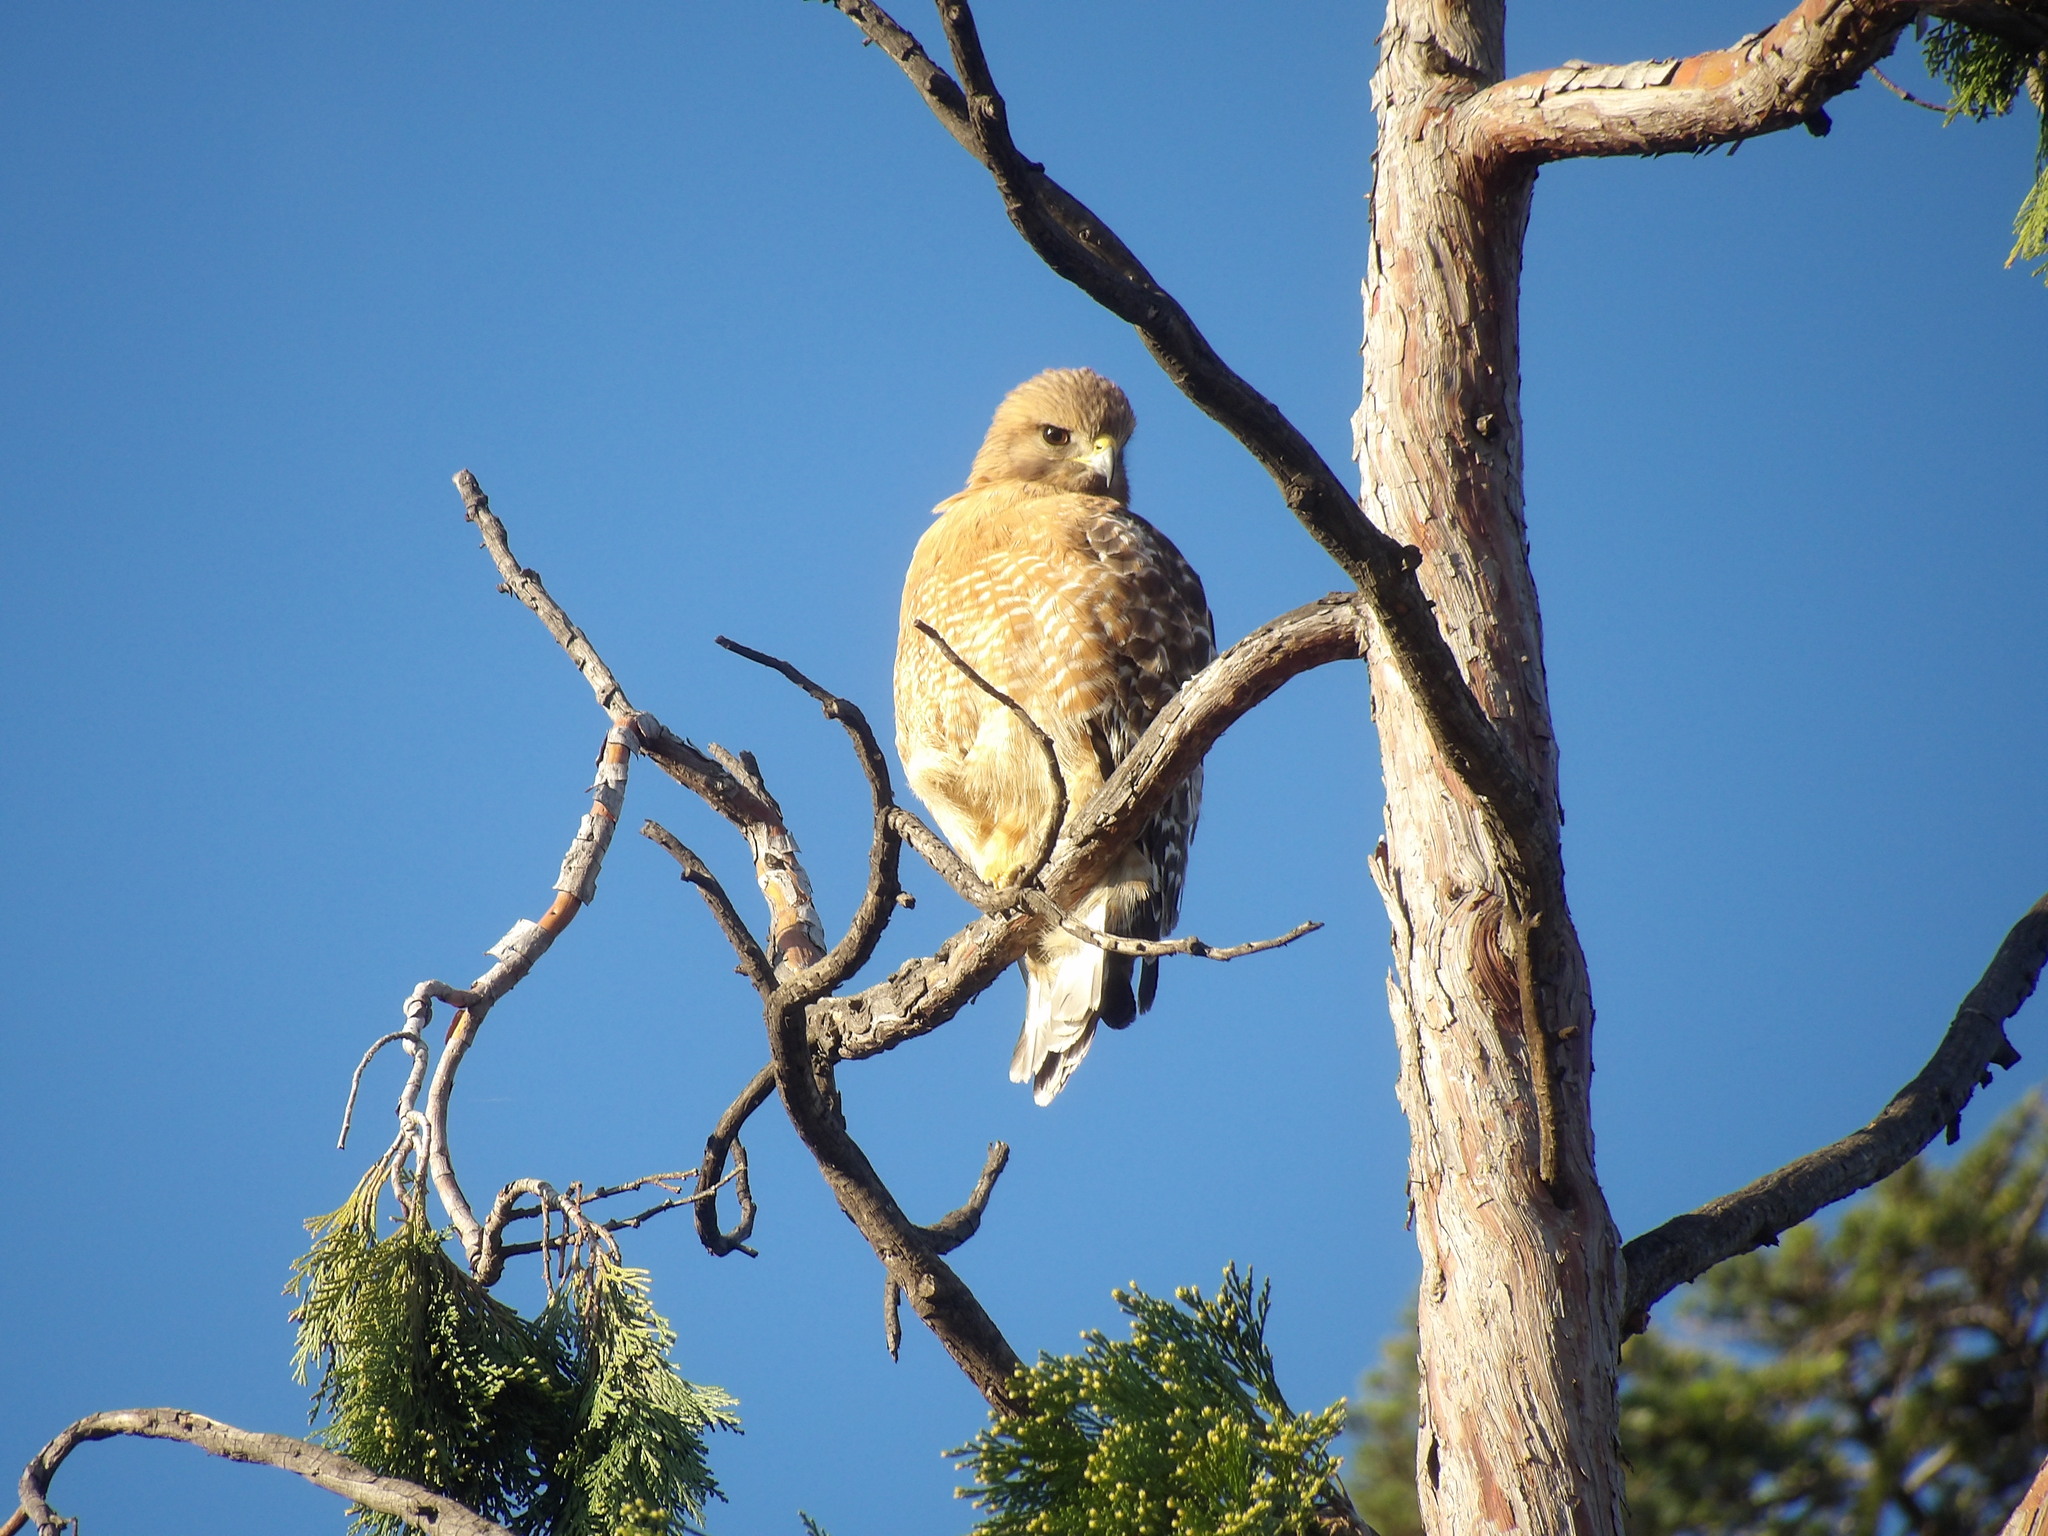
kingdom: Animalia
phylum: Chordata
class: Aves
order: Accipitriformes
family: Accipitridae
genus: Buteo
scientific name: Buteo lineatus
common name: Red-shouldered hawk
